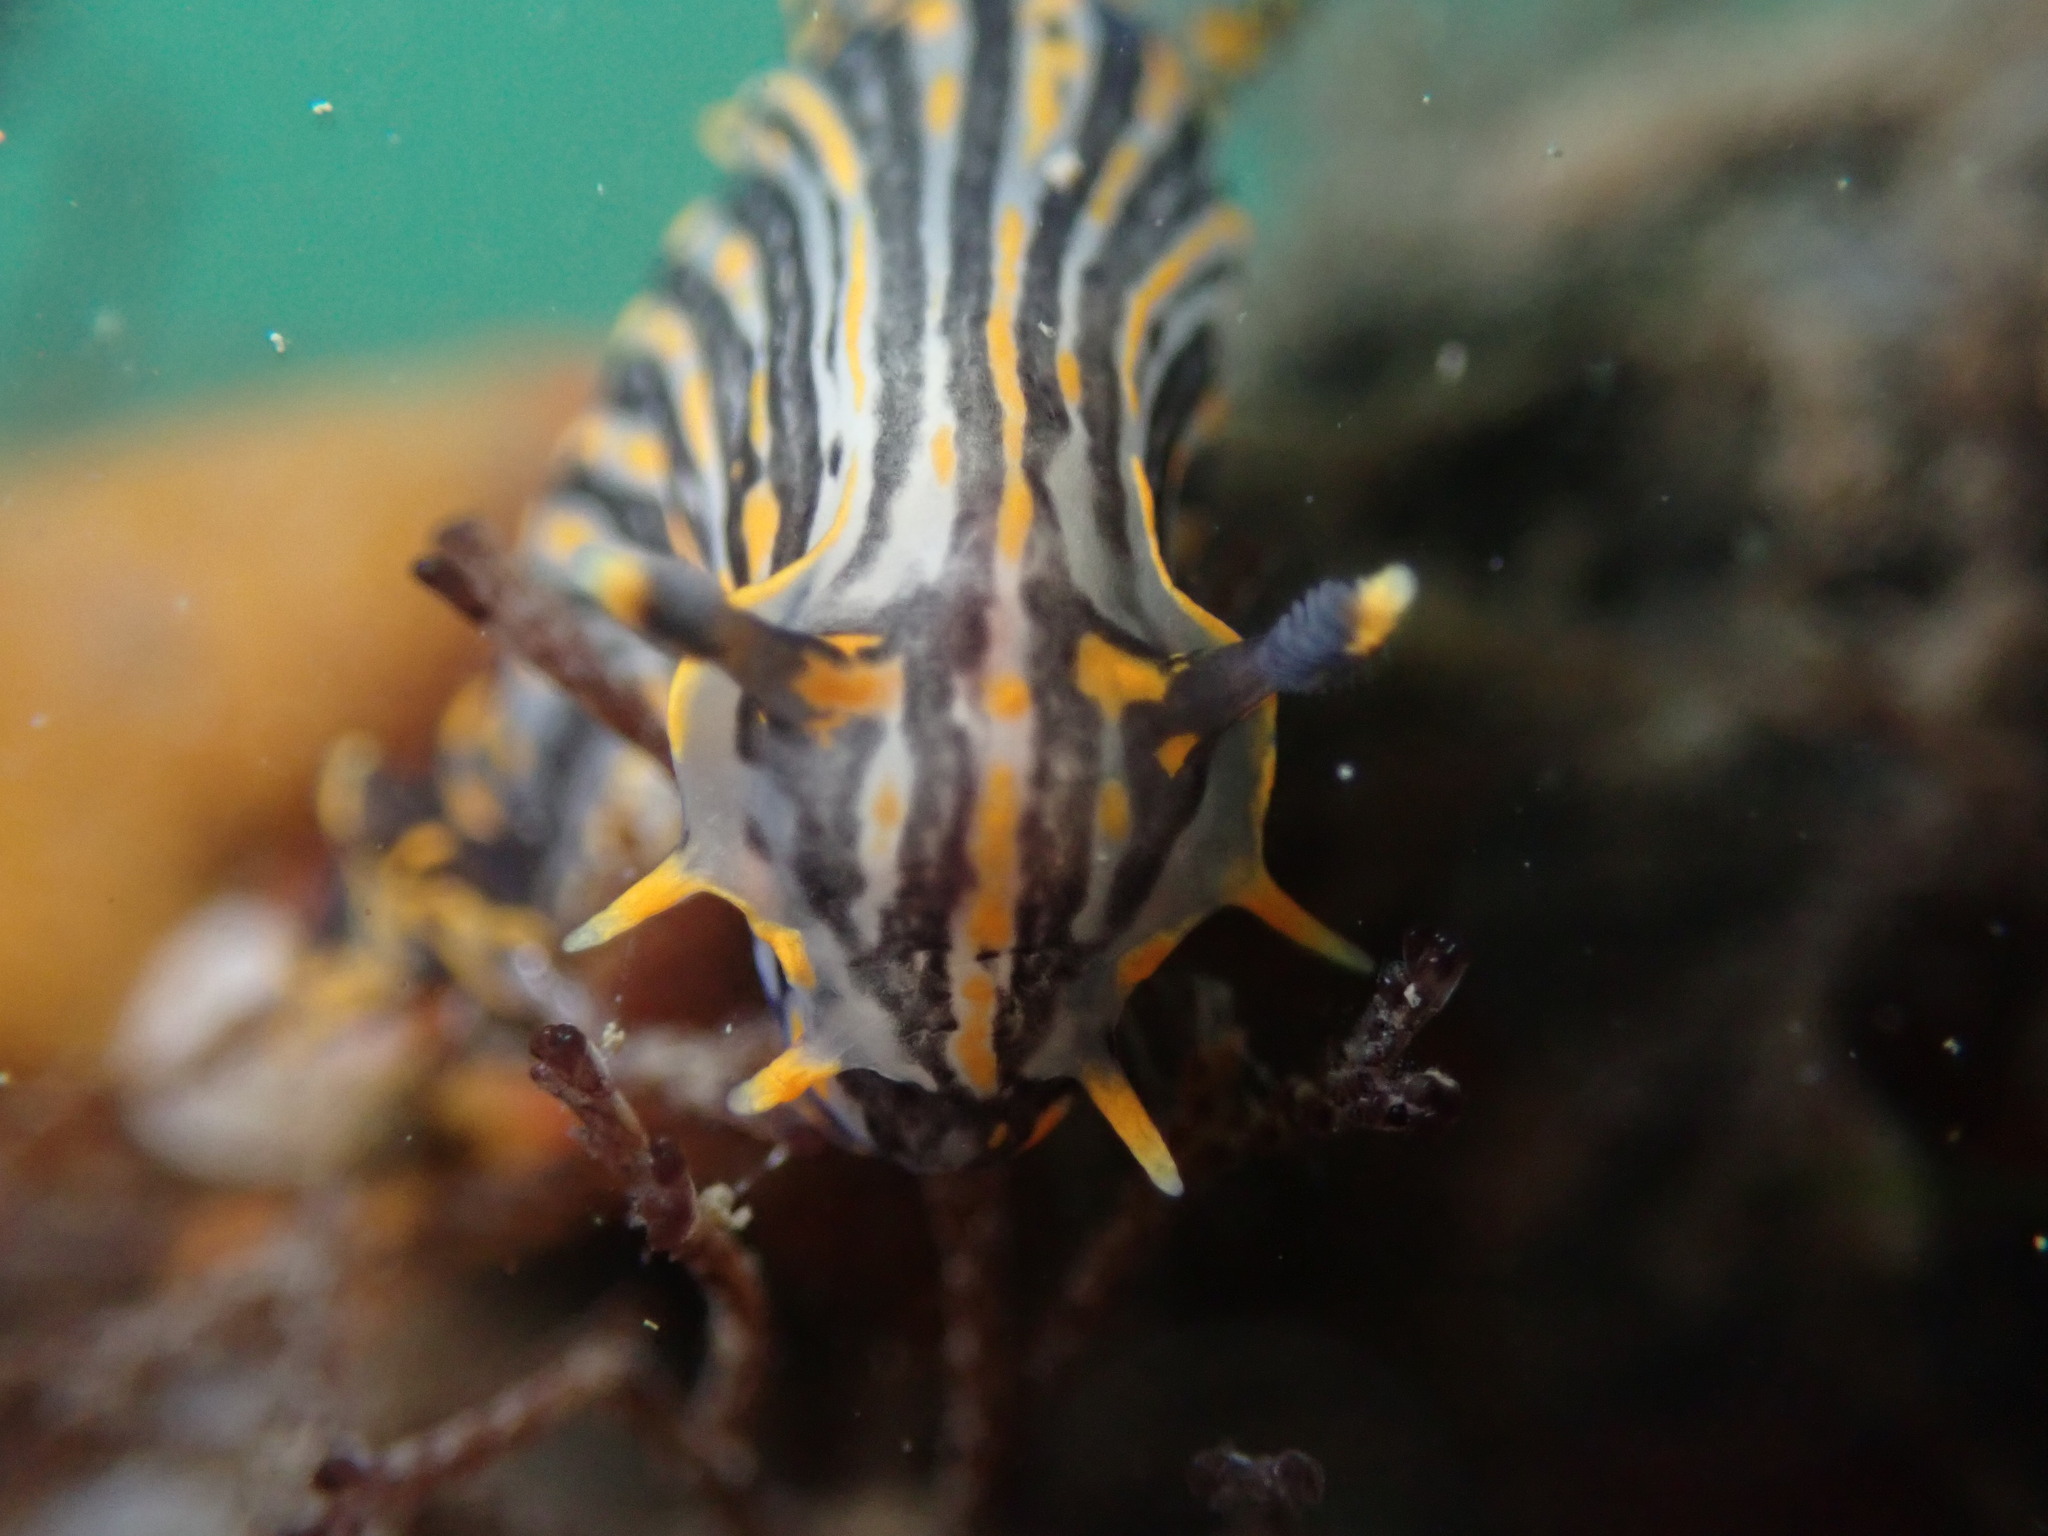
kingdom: Animalia
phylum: Mollusca
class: Gastropoda
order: Nudibranchia
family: Polyceridae
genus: Polycera
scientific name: Polycera atra
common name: Orange-spike polycera
